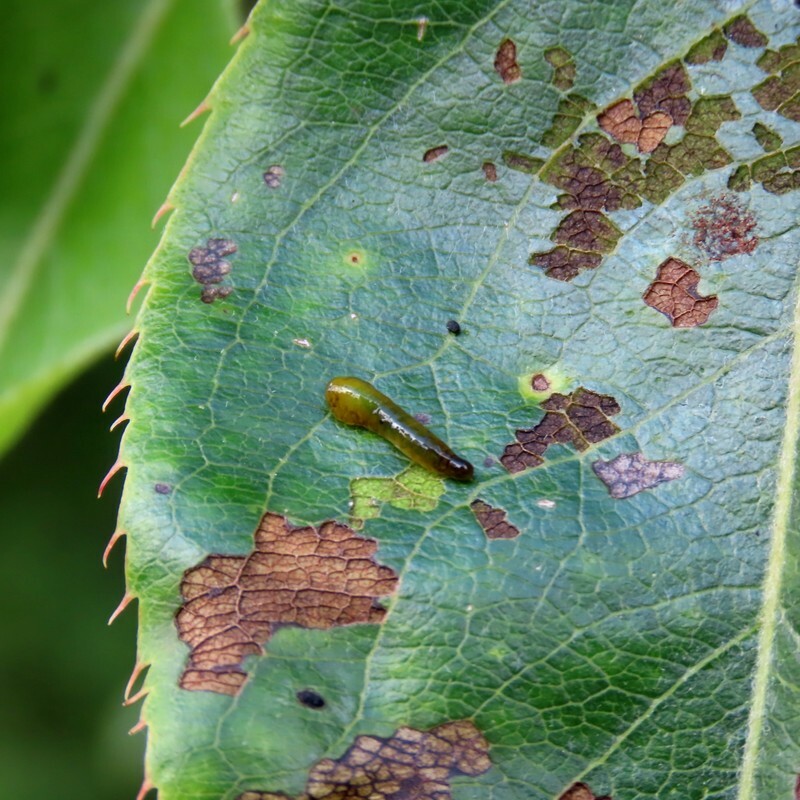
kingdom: Animalia
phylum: Arthropoda
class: Insecta
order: Hymenoptera
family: Tenthredinidae
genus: Caliroa
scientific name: Caliroa cerasi
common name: Pear sawfly
